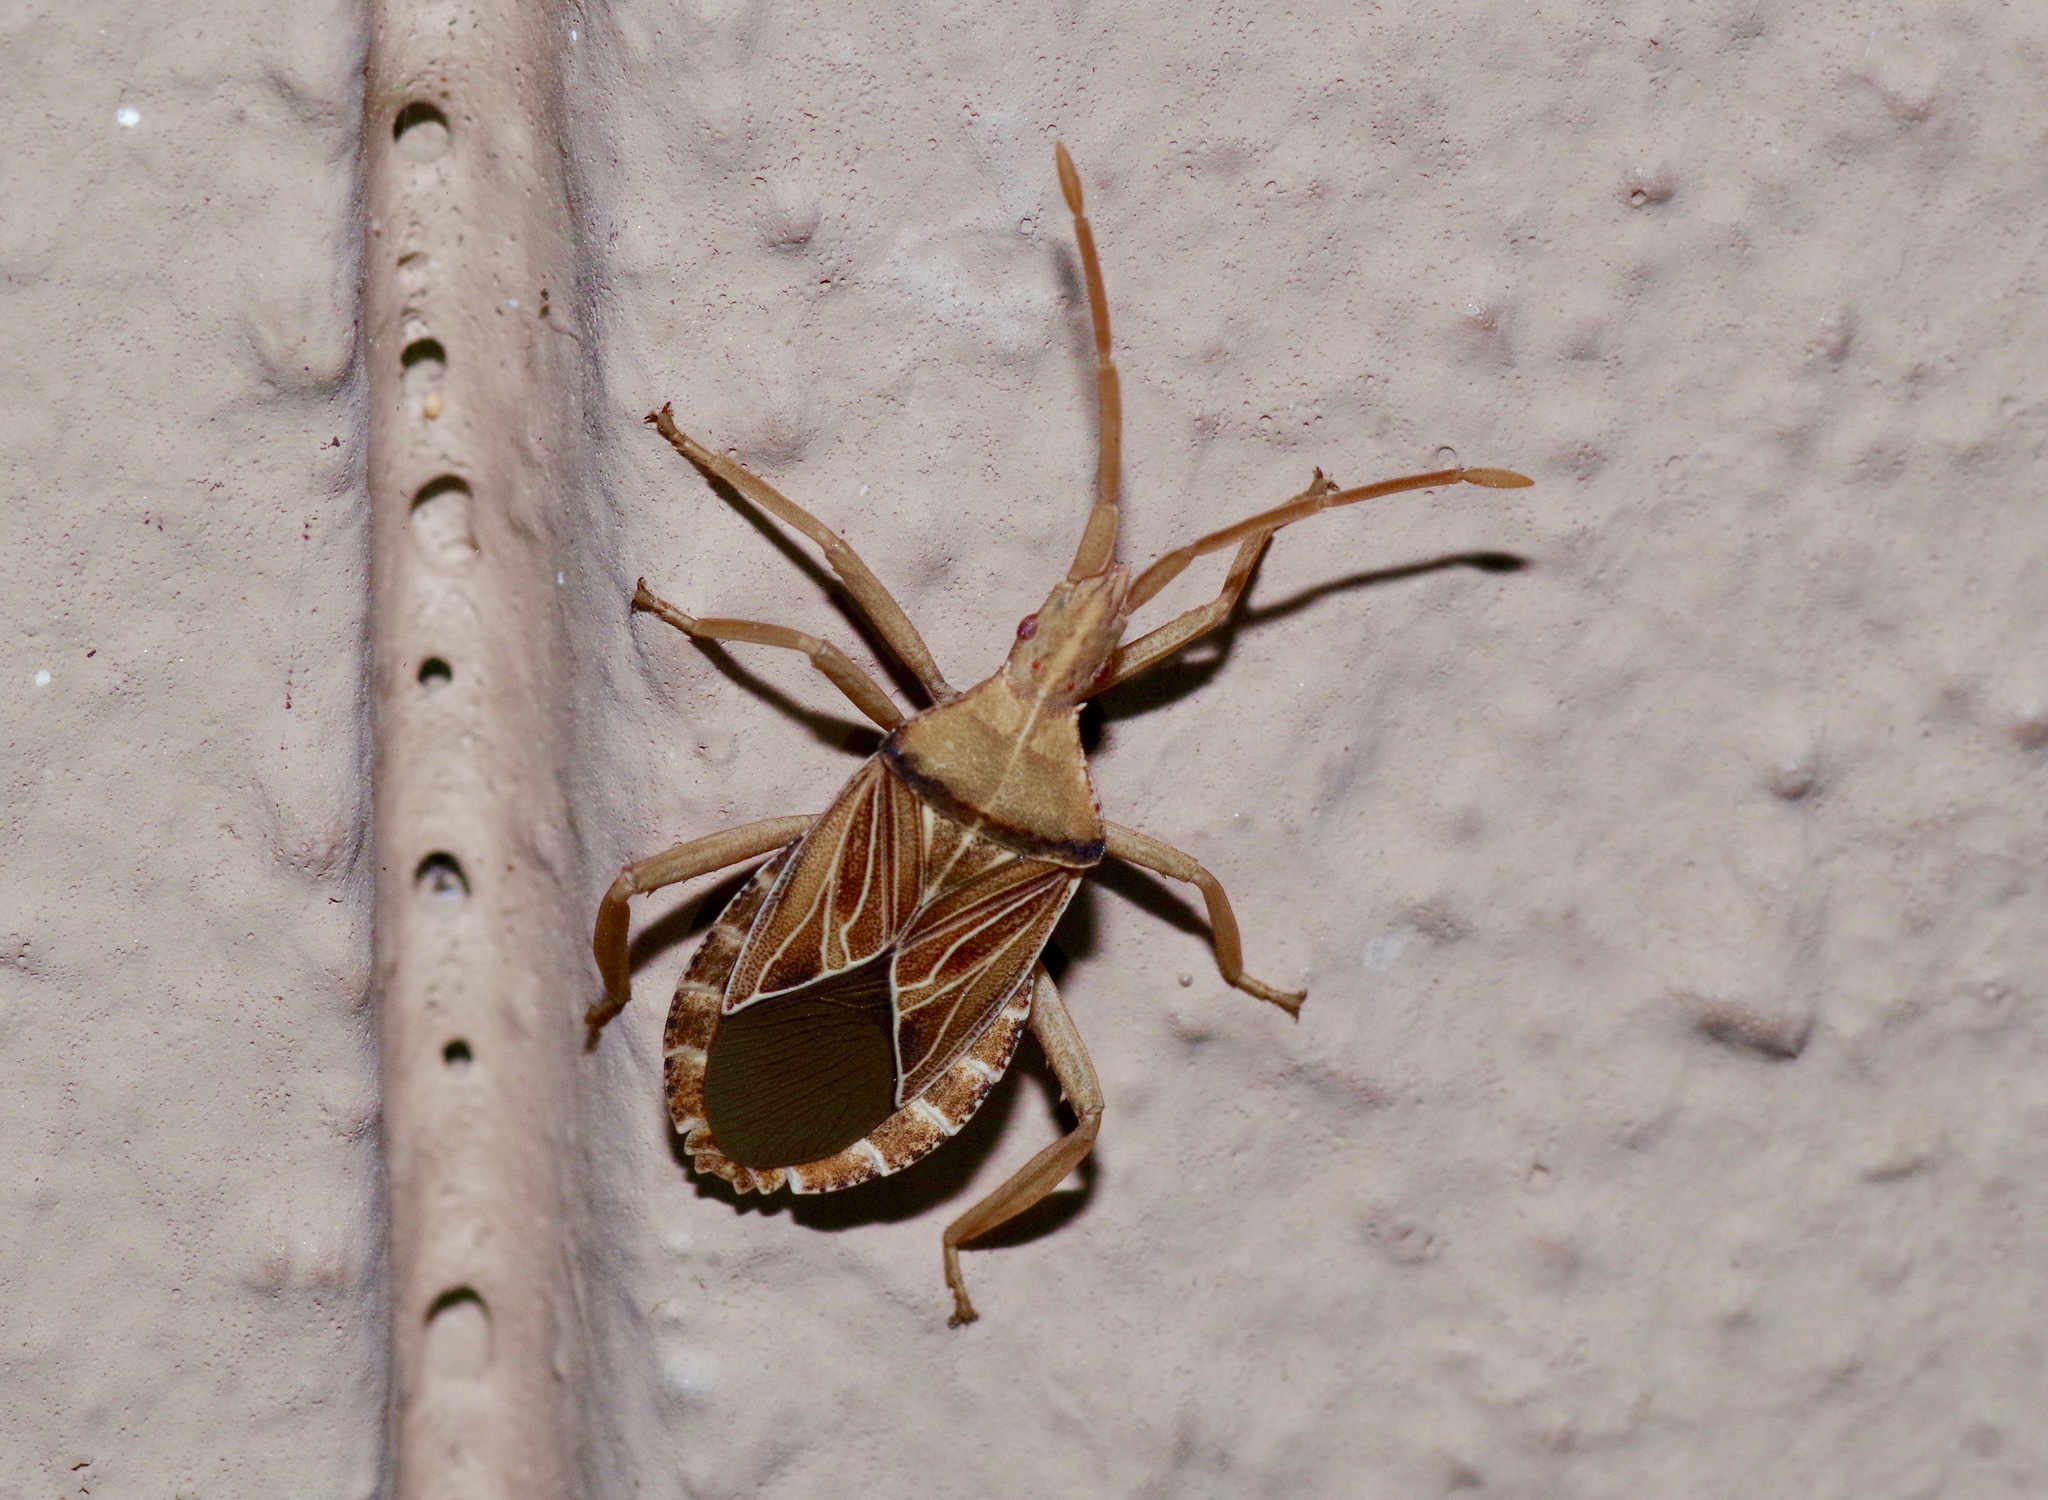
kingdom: Animalia
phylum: Arthropoda
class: Insecta
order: Hemiptera
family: Coreidae
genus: Chelinidea
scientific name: Chelinidea tabulata
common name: Prickly pear bug
